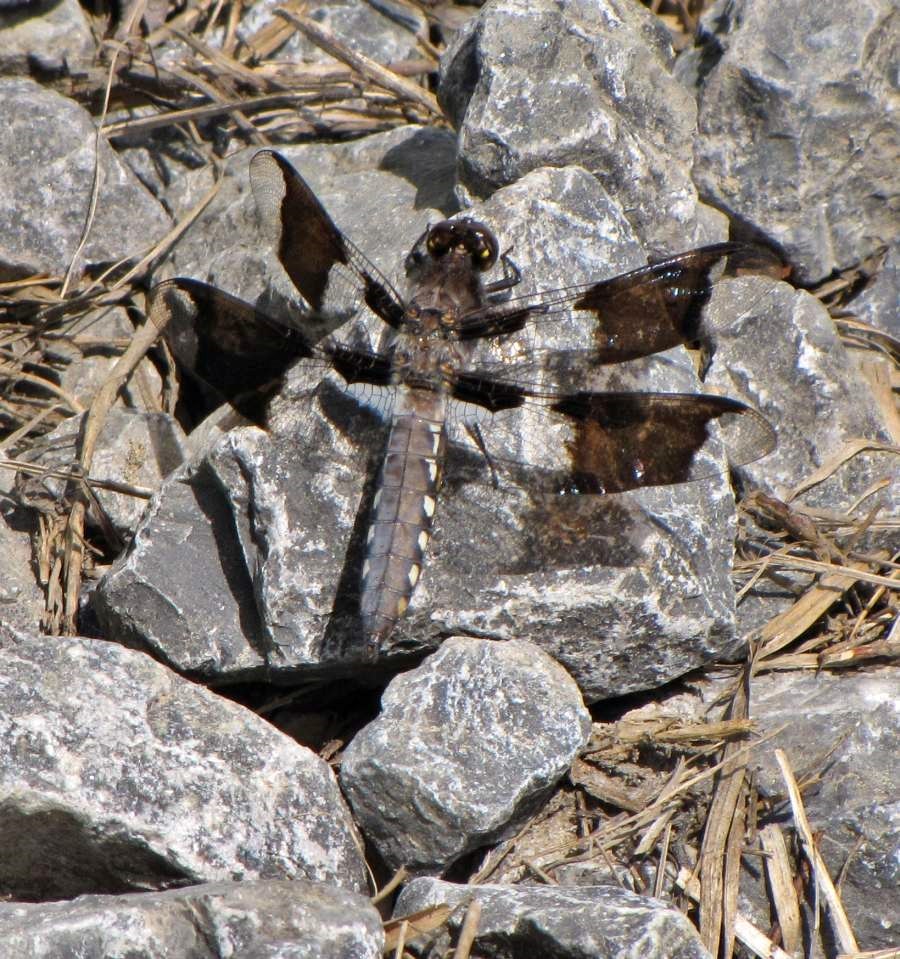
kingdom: Animalia
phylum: Arthropoda
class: Insecta
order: Odonata
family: Libellulidae
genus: Plathemis
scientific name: Plathemis lydia
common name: Common whitetail
